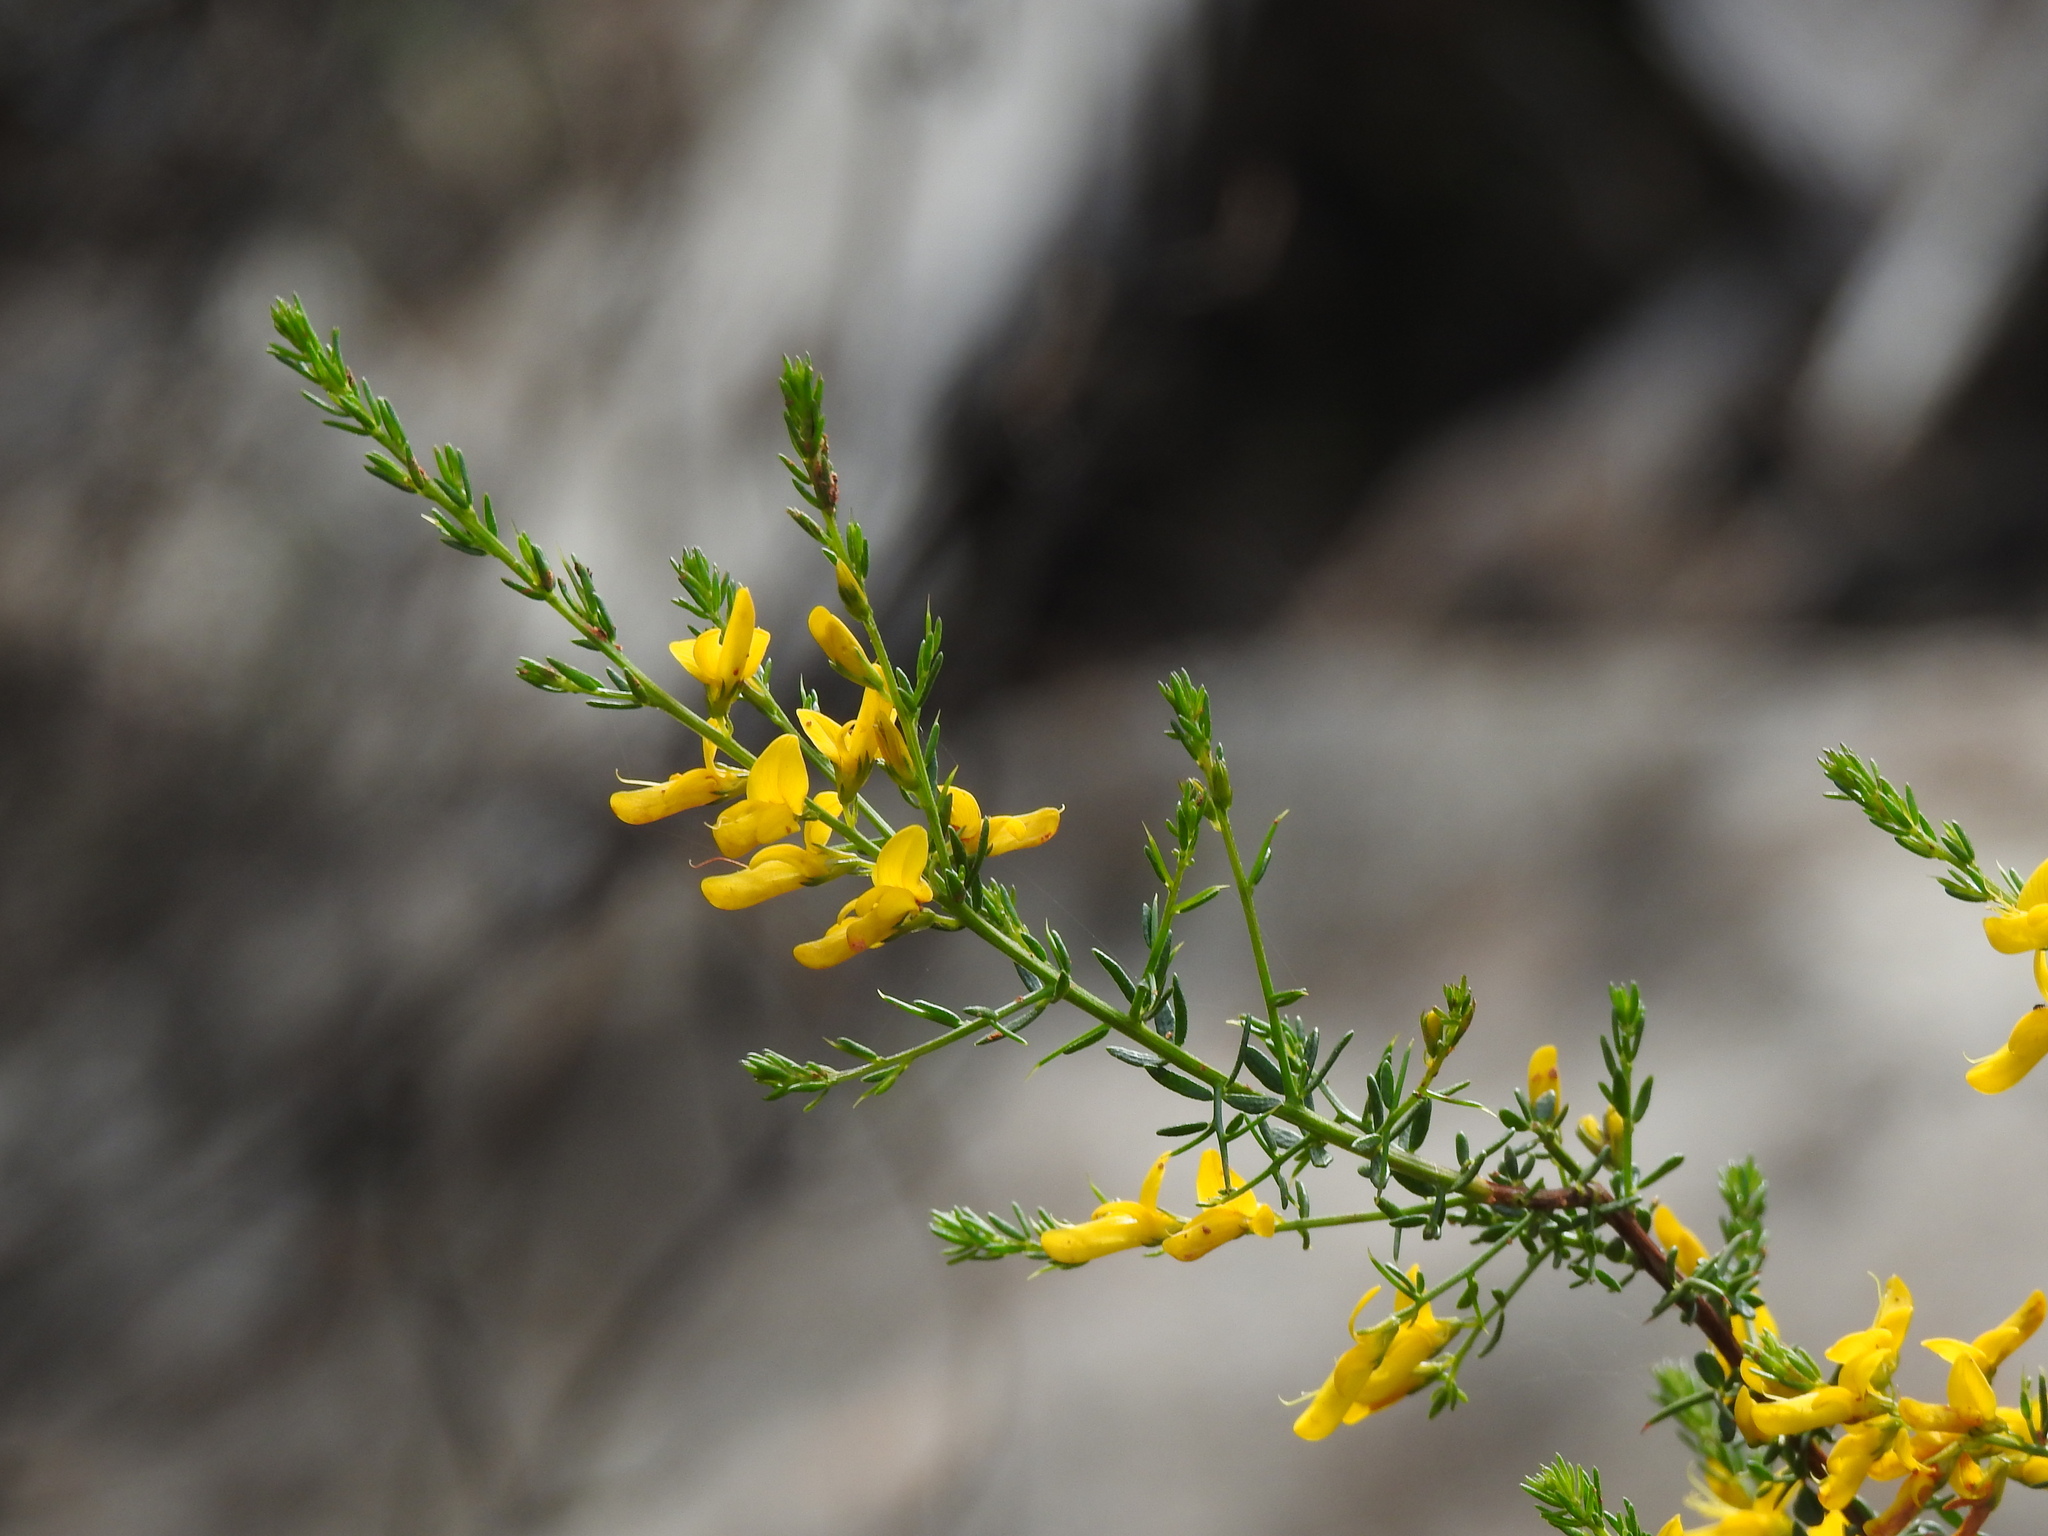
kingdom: Plantae
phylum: Tracheophyta
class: Magnoliopsida
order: Fabales
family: Fabaceae
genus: Genista
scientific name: Genista triacanthos
